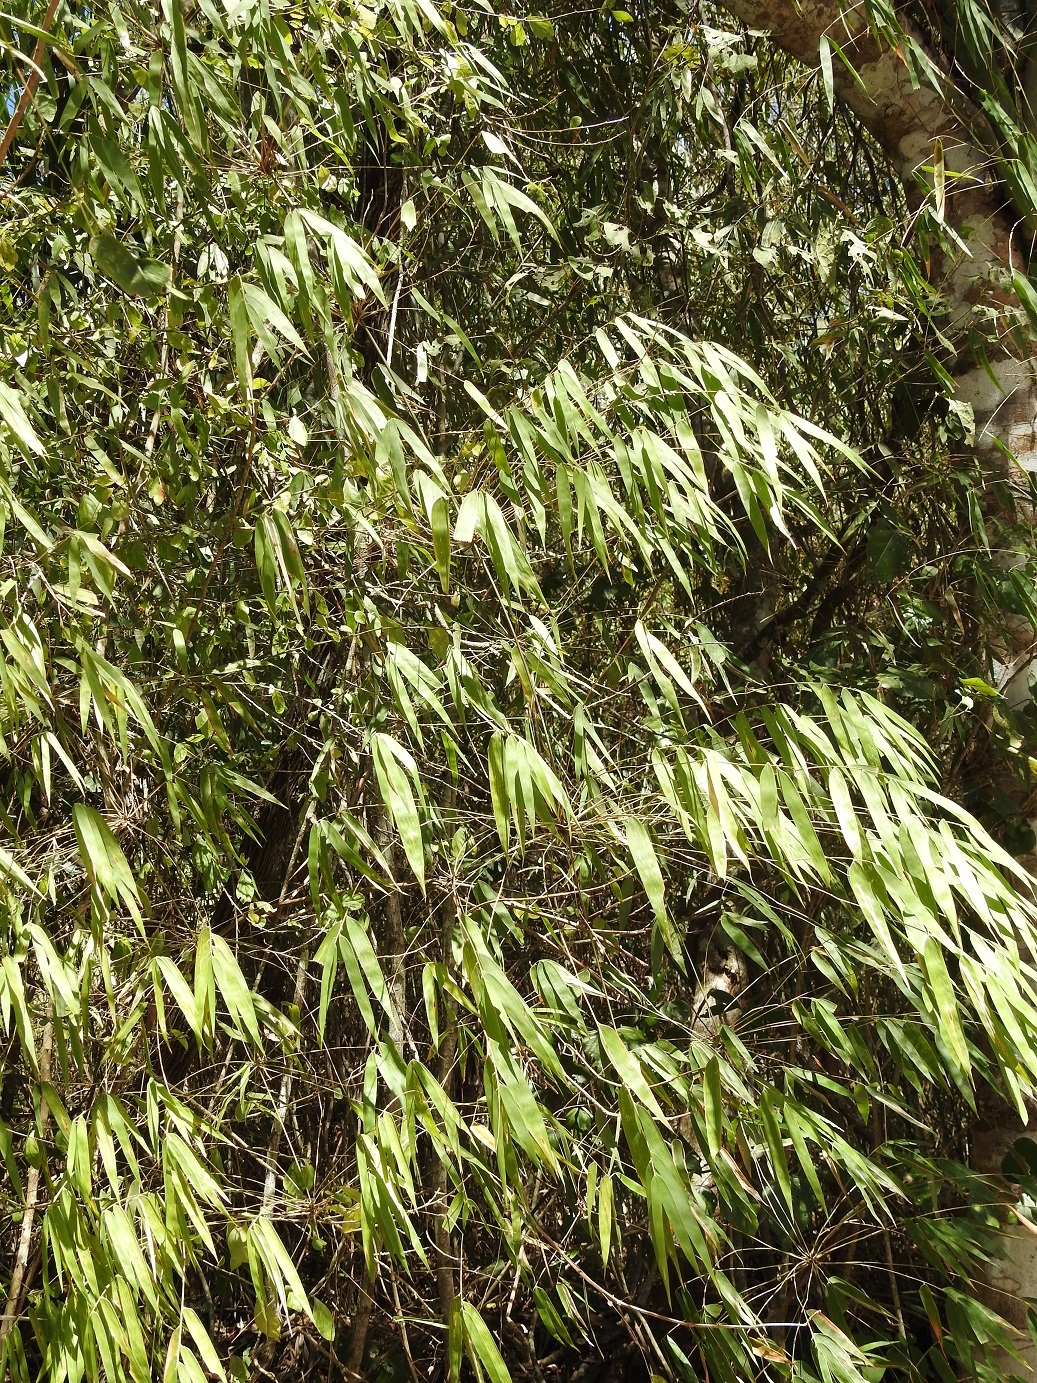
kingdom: Plantae
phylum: Tracheophyta
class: Liliopsida
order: Poales
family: Poaceae
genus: Rhipidocladum
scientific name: Rhipidocladum pittieri
